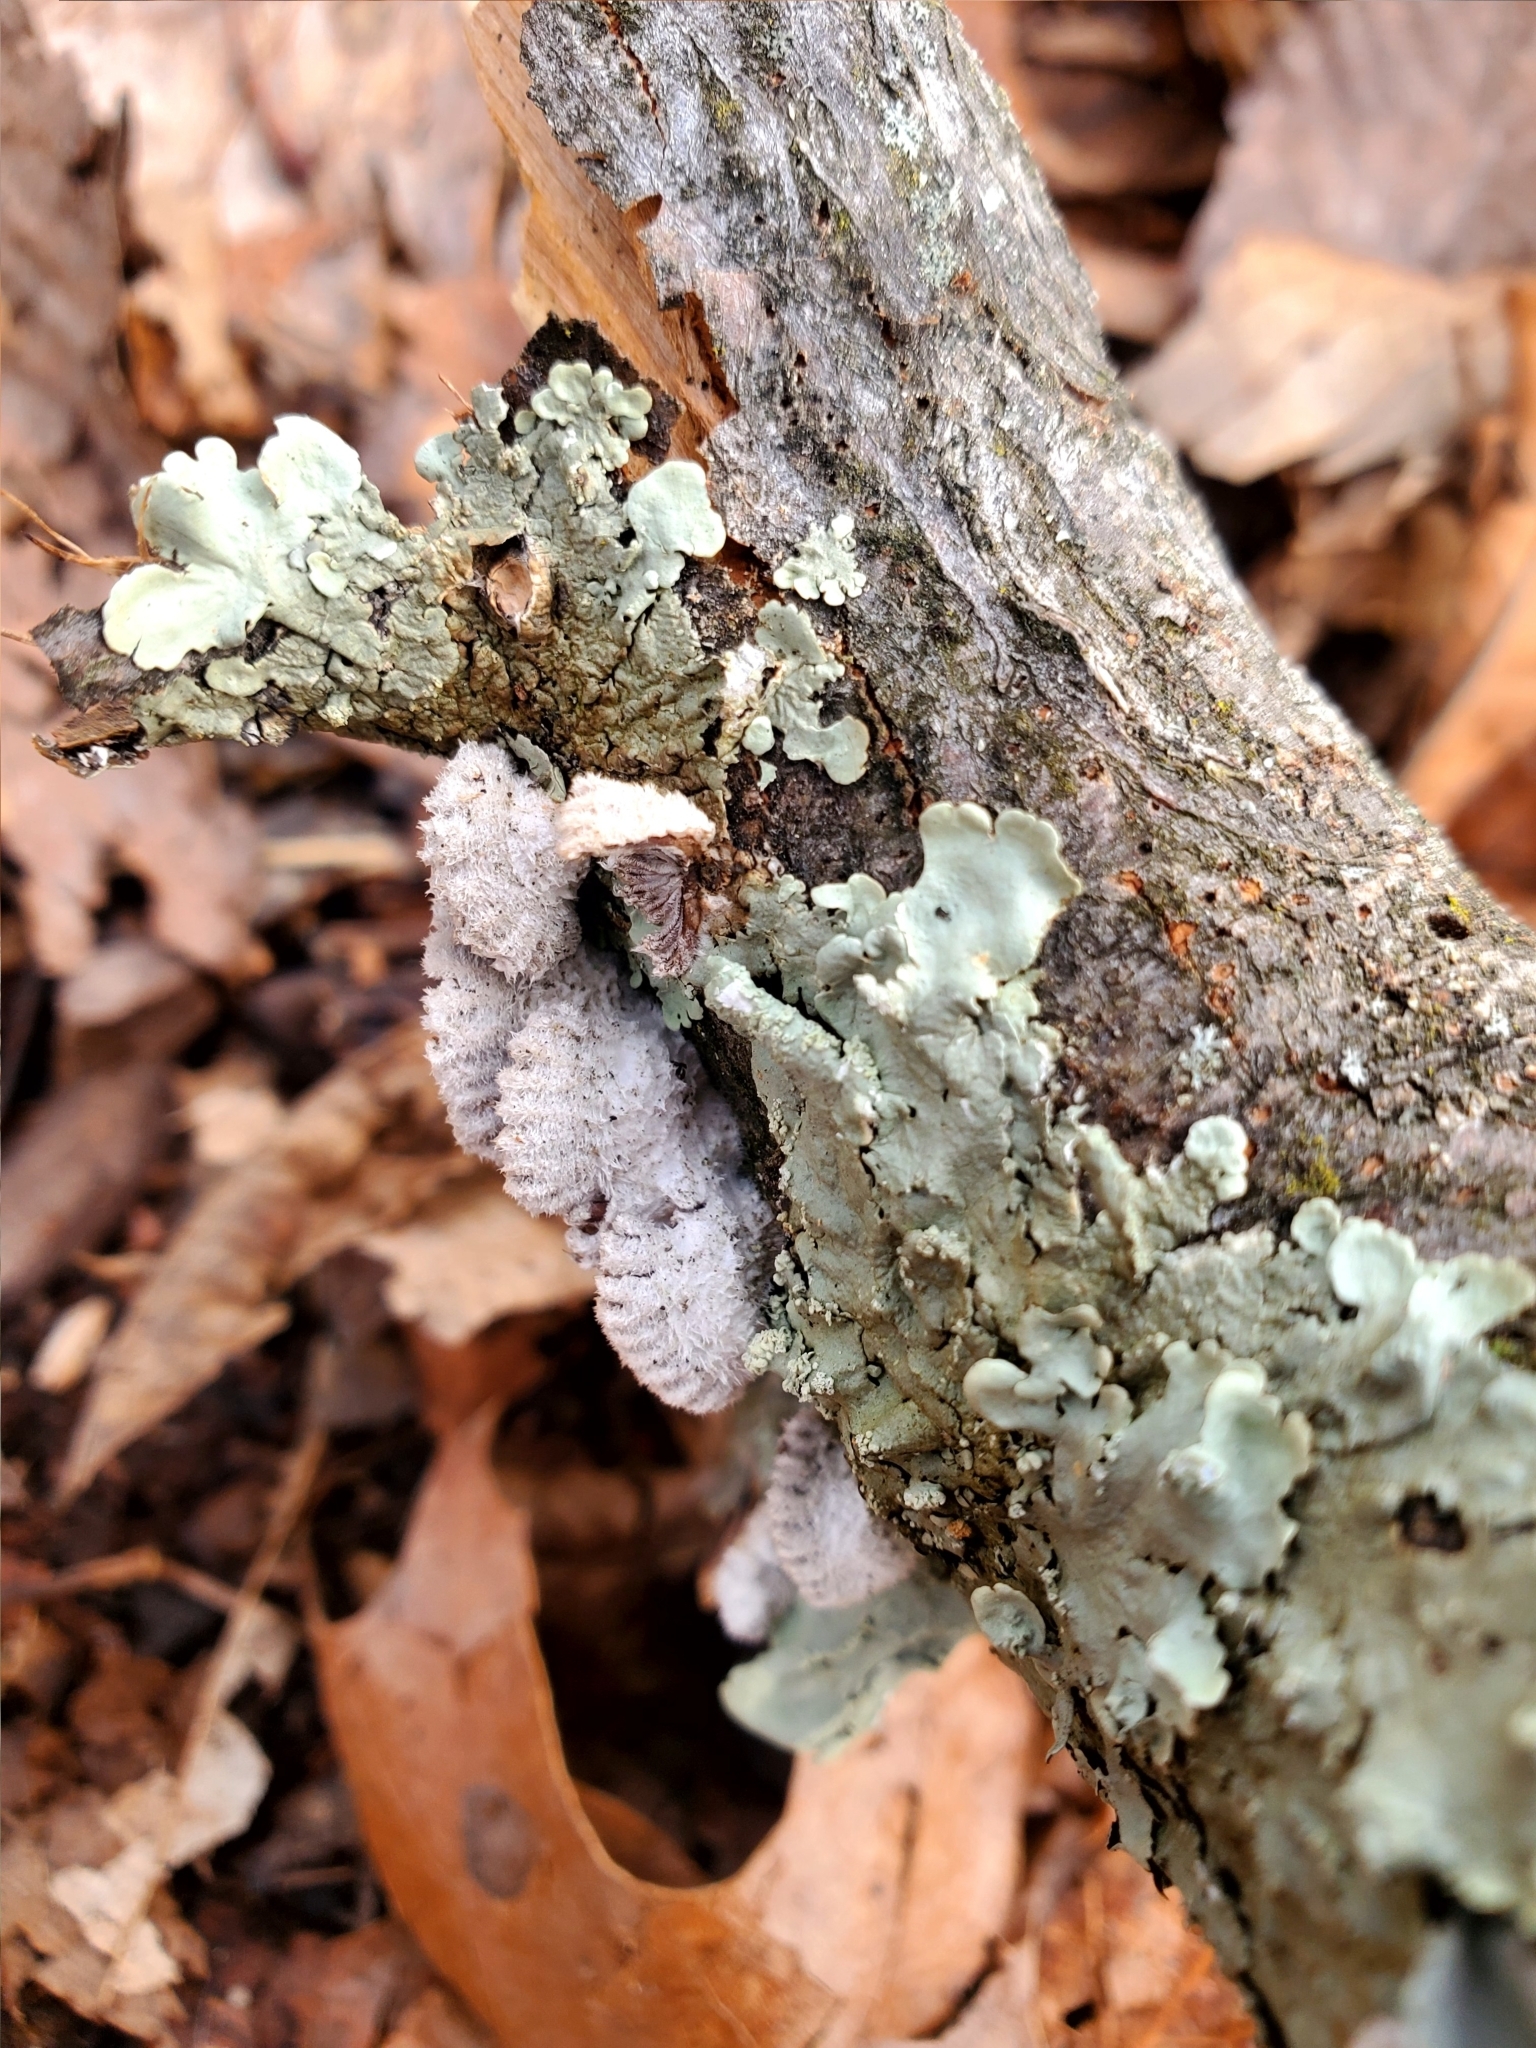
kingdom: Fungi
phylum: Basidiomycota
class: Agaricomycetes
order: Agaricales
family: Schizophyllaceae
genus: Schizophyllum
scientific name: Schizophyllum commune
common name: Common porecrust
